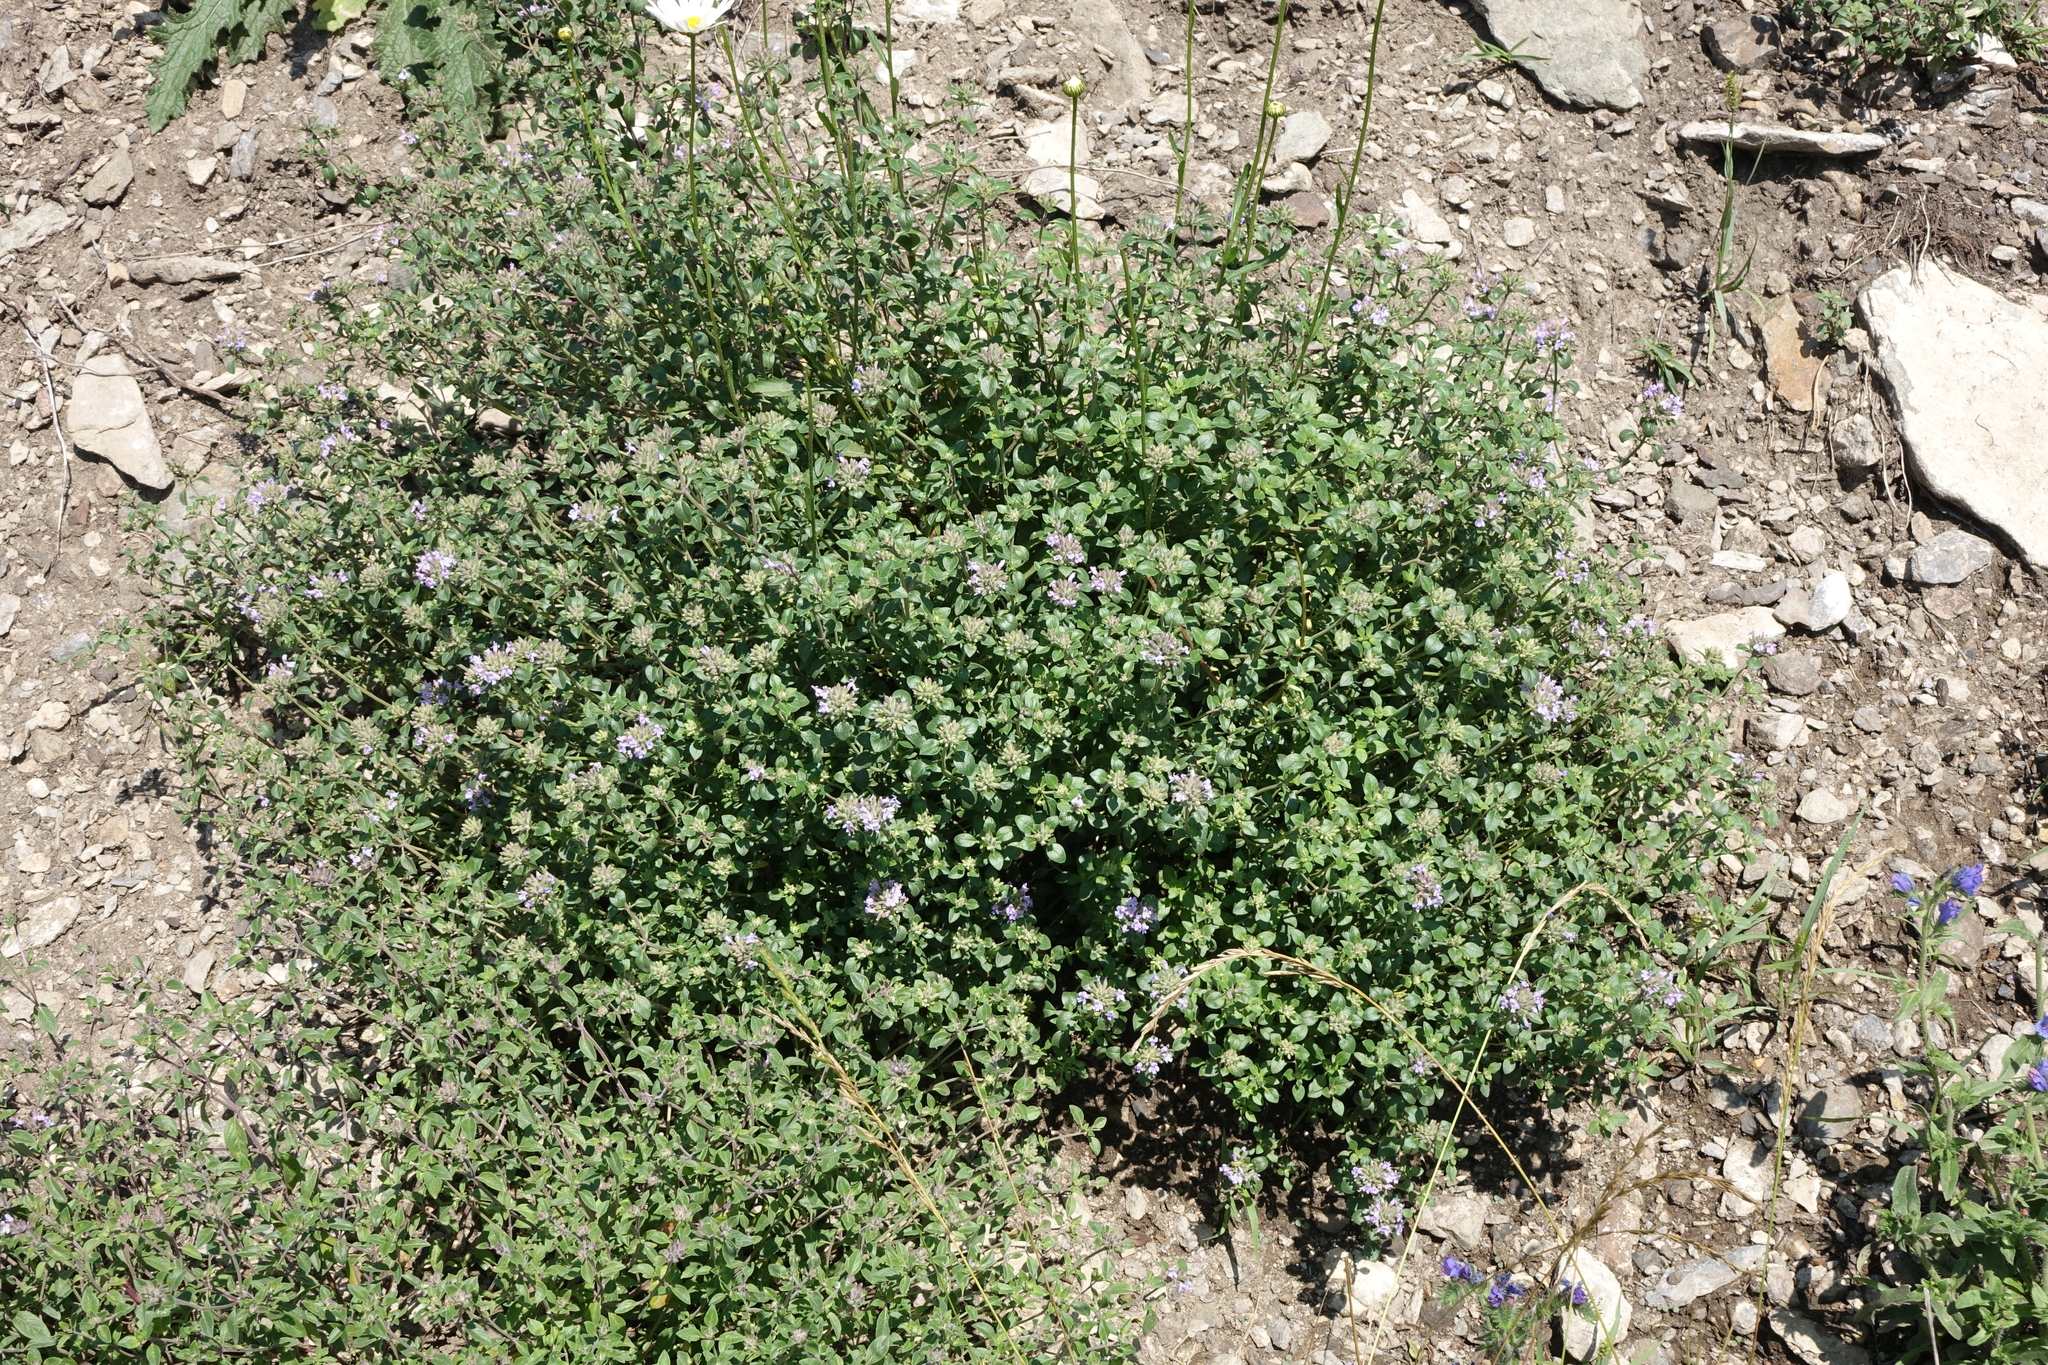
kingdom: Plantae
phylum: Tracheophyta
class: Magnoliopsida
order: Lamiales
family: Lamiaceae
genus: Ziziphora
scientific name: Ziziphora clinopodioides
